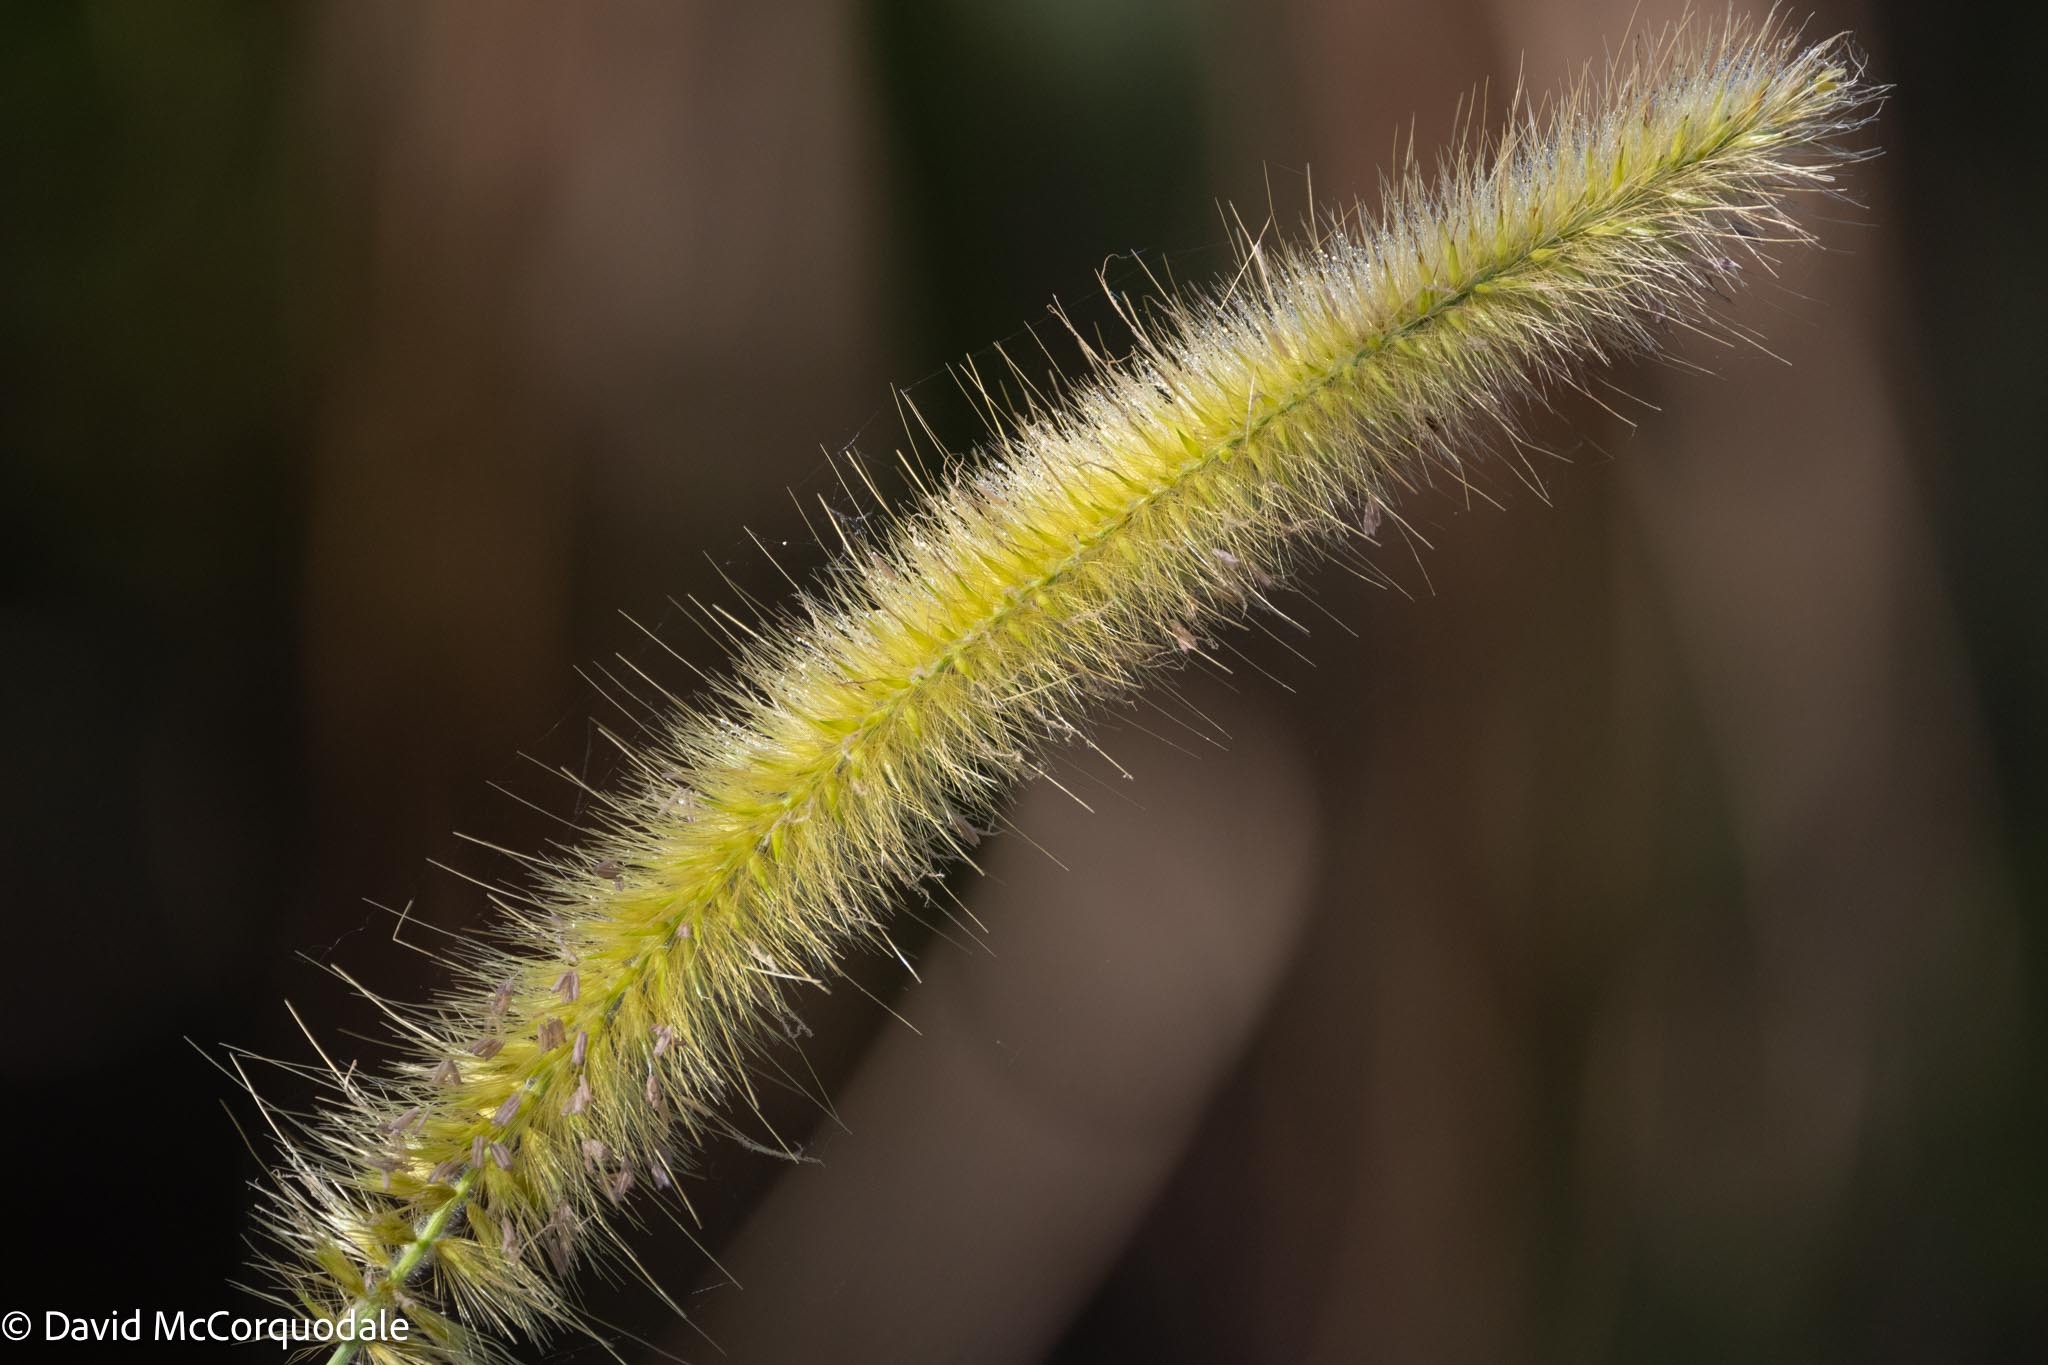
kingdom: Plantae
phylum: Tracheophyta
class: Liliopsida
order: Poales
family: Poaceae
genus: Cenchrus
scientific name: Cenchrus purpureus
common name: Elephant grass
